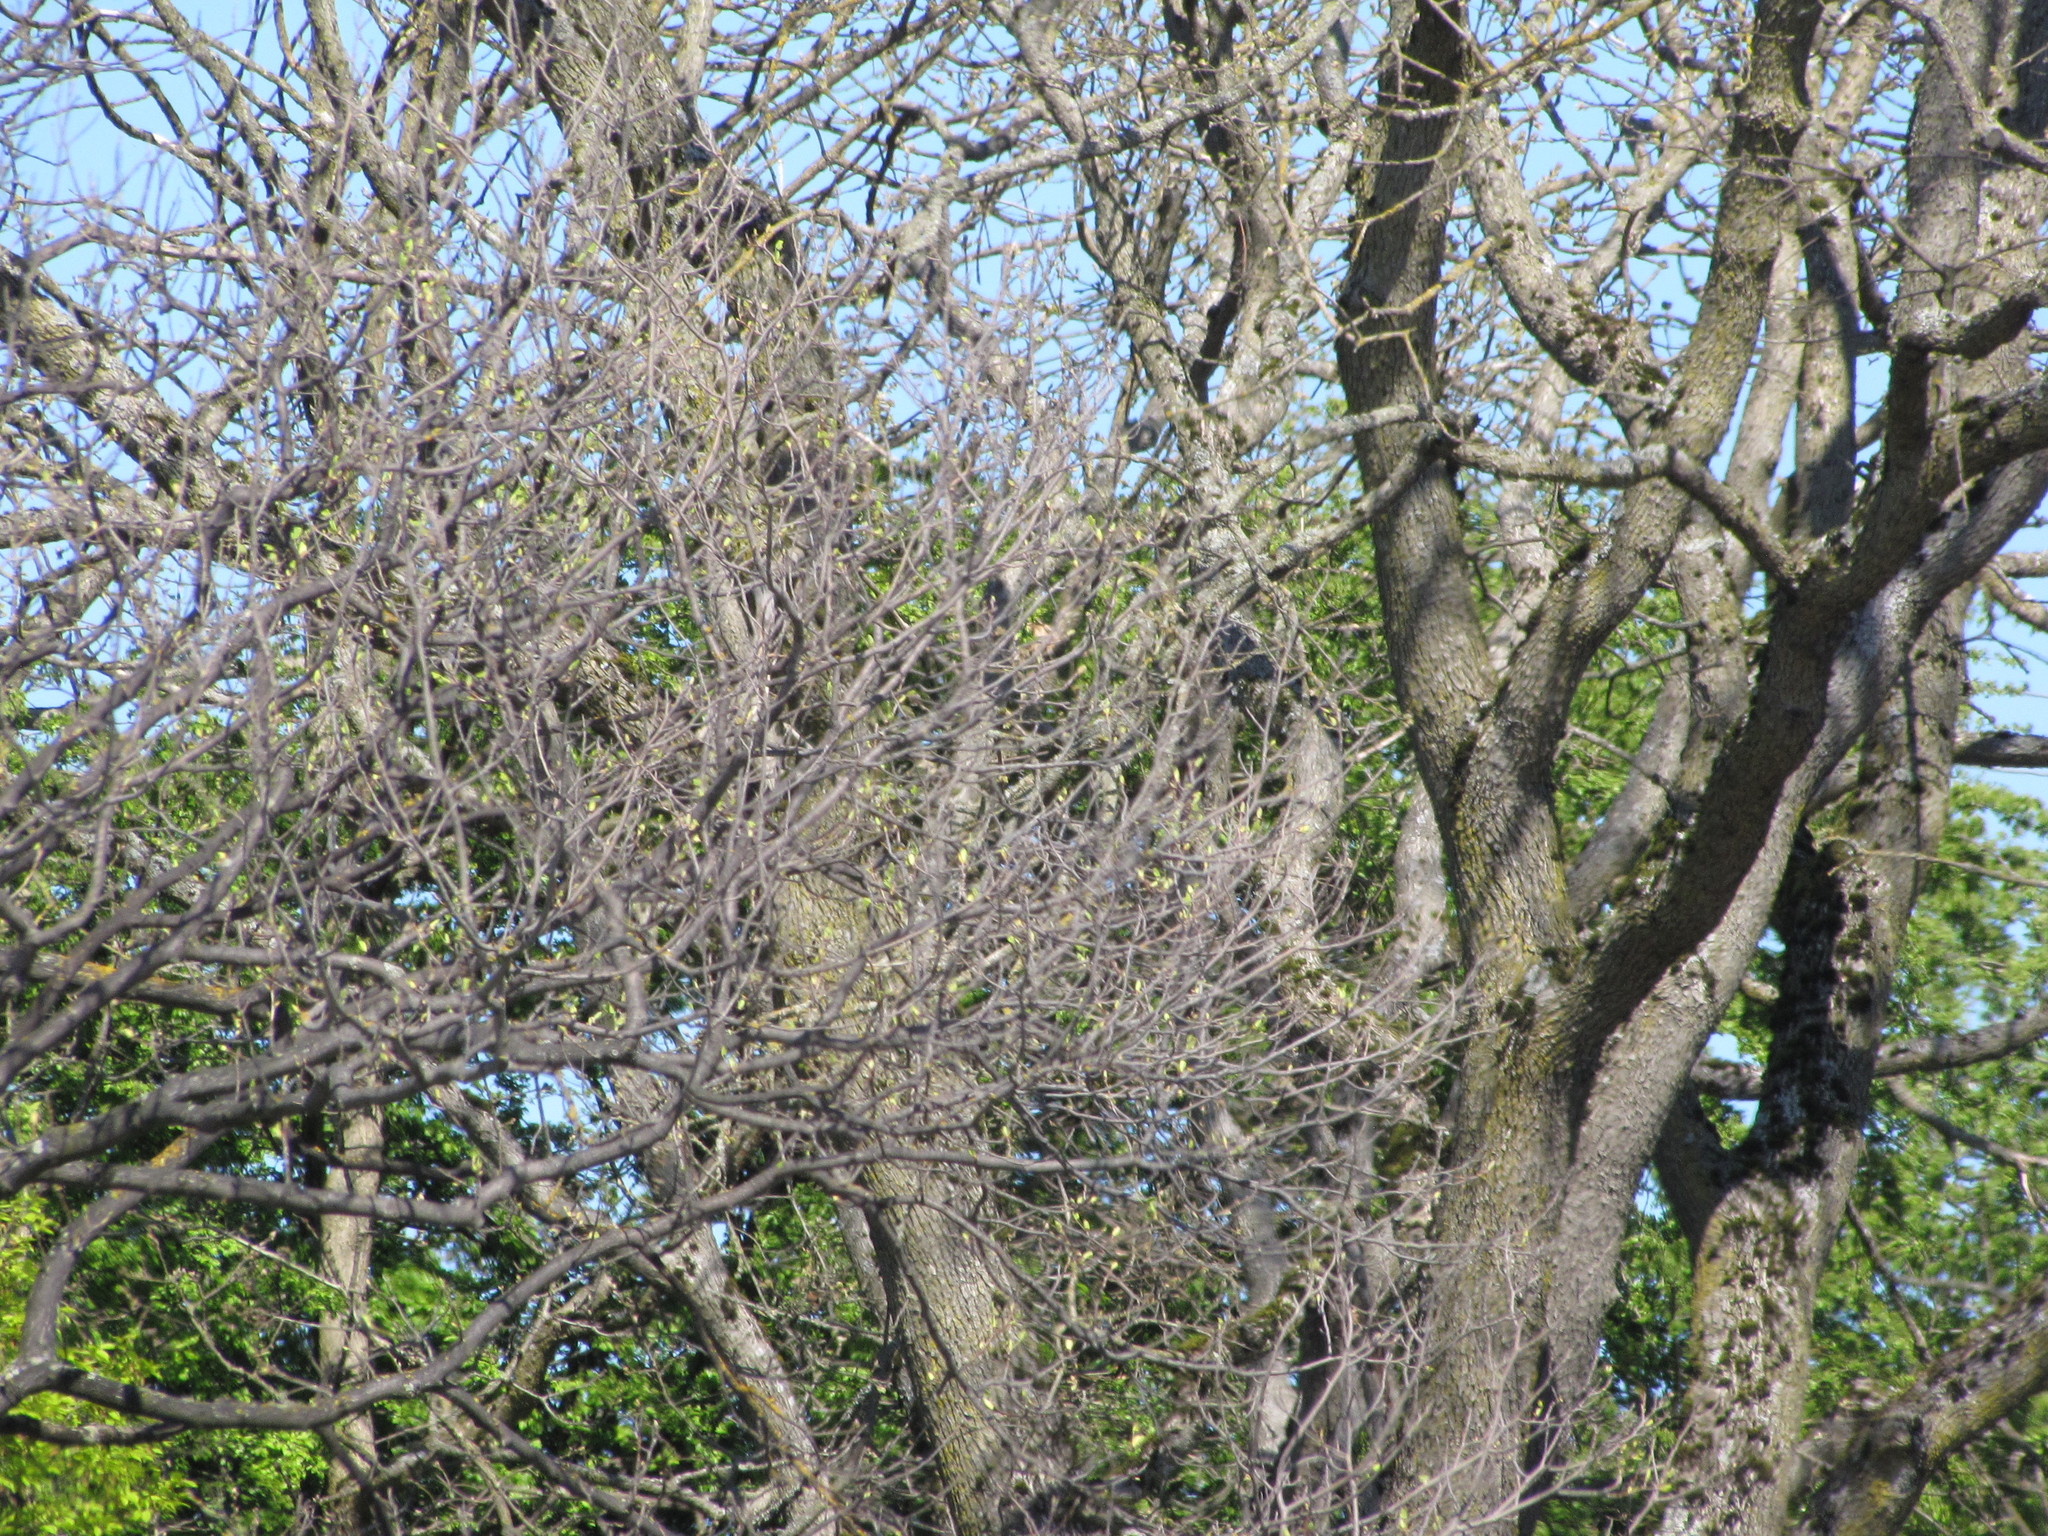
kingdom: Plantae
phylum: Tracheophyta
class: Magnoliopsida
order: Fagales
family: Fagaceae
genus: Quercus
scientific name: Quercus garryana
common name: Garry oak
